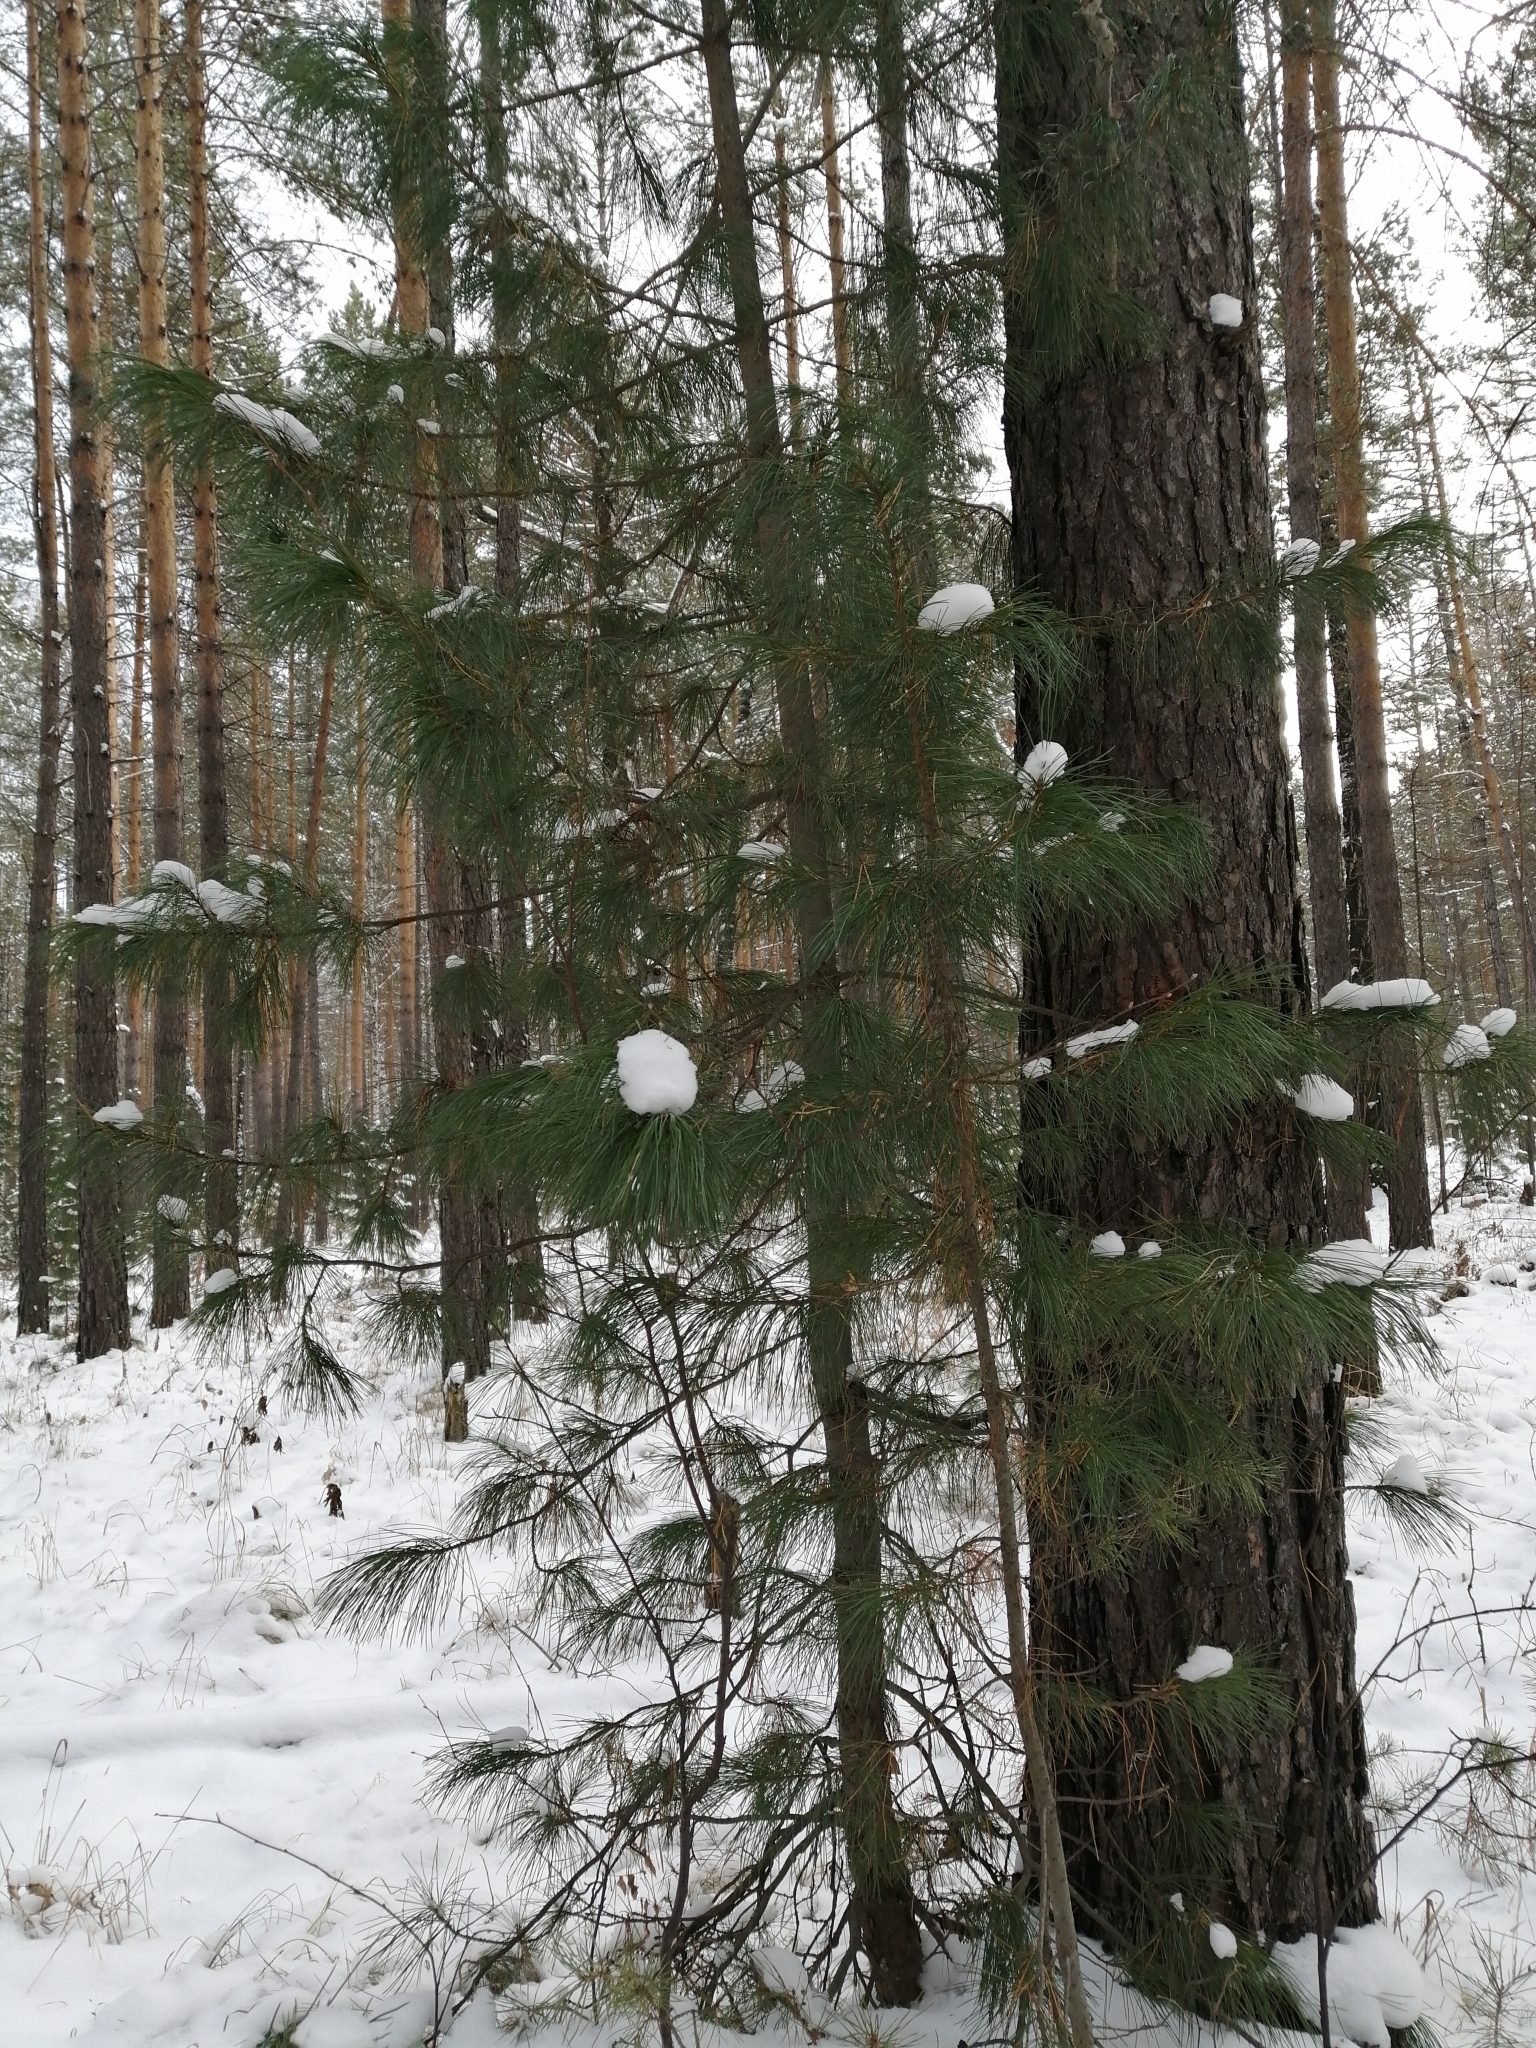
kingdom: Plantae
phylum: Tracheophyta
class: Pinopsida
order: Pinales
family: Pinaceae
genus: Pinus
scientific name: Pinus sibirica
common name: Siberian pine
